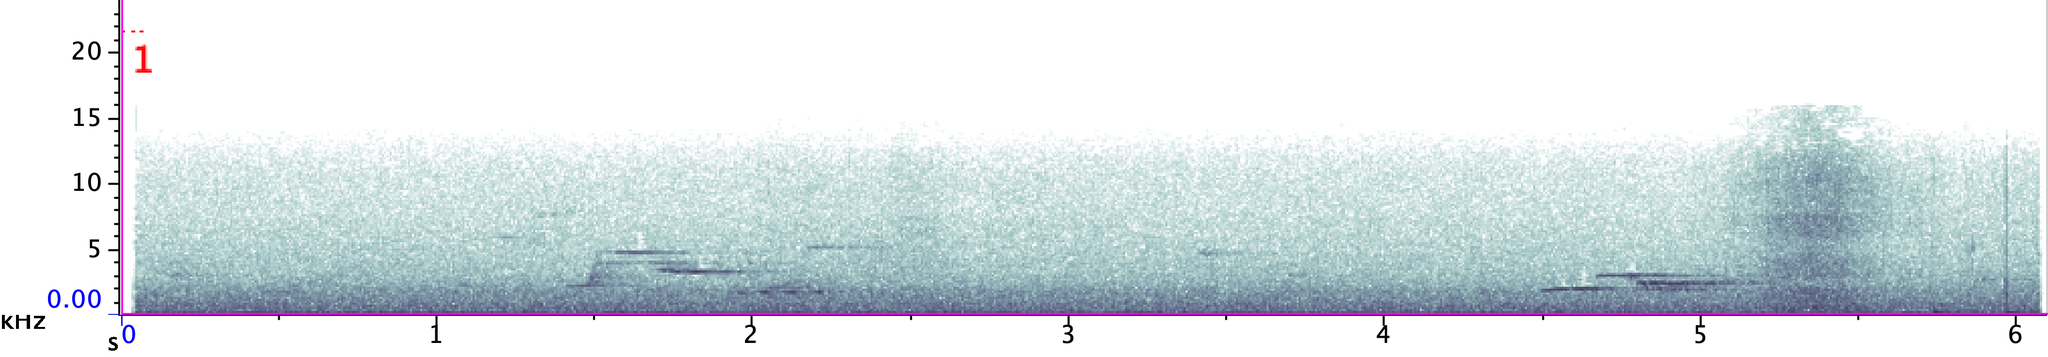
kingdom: Animalia
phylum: Chordata
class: Aves
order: Passeriformes
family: Turdidae
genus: Hylocichla
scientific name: Hylocichla mustelina
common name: Wood thrush
